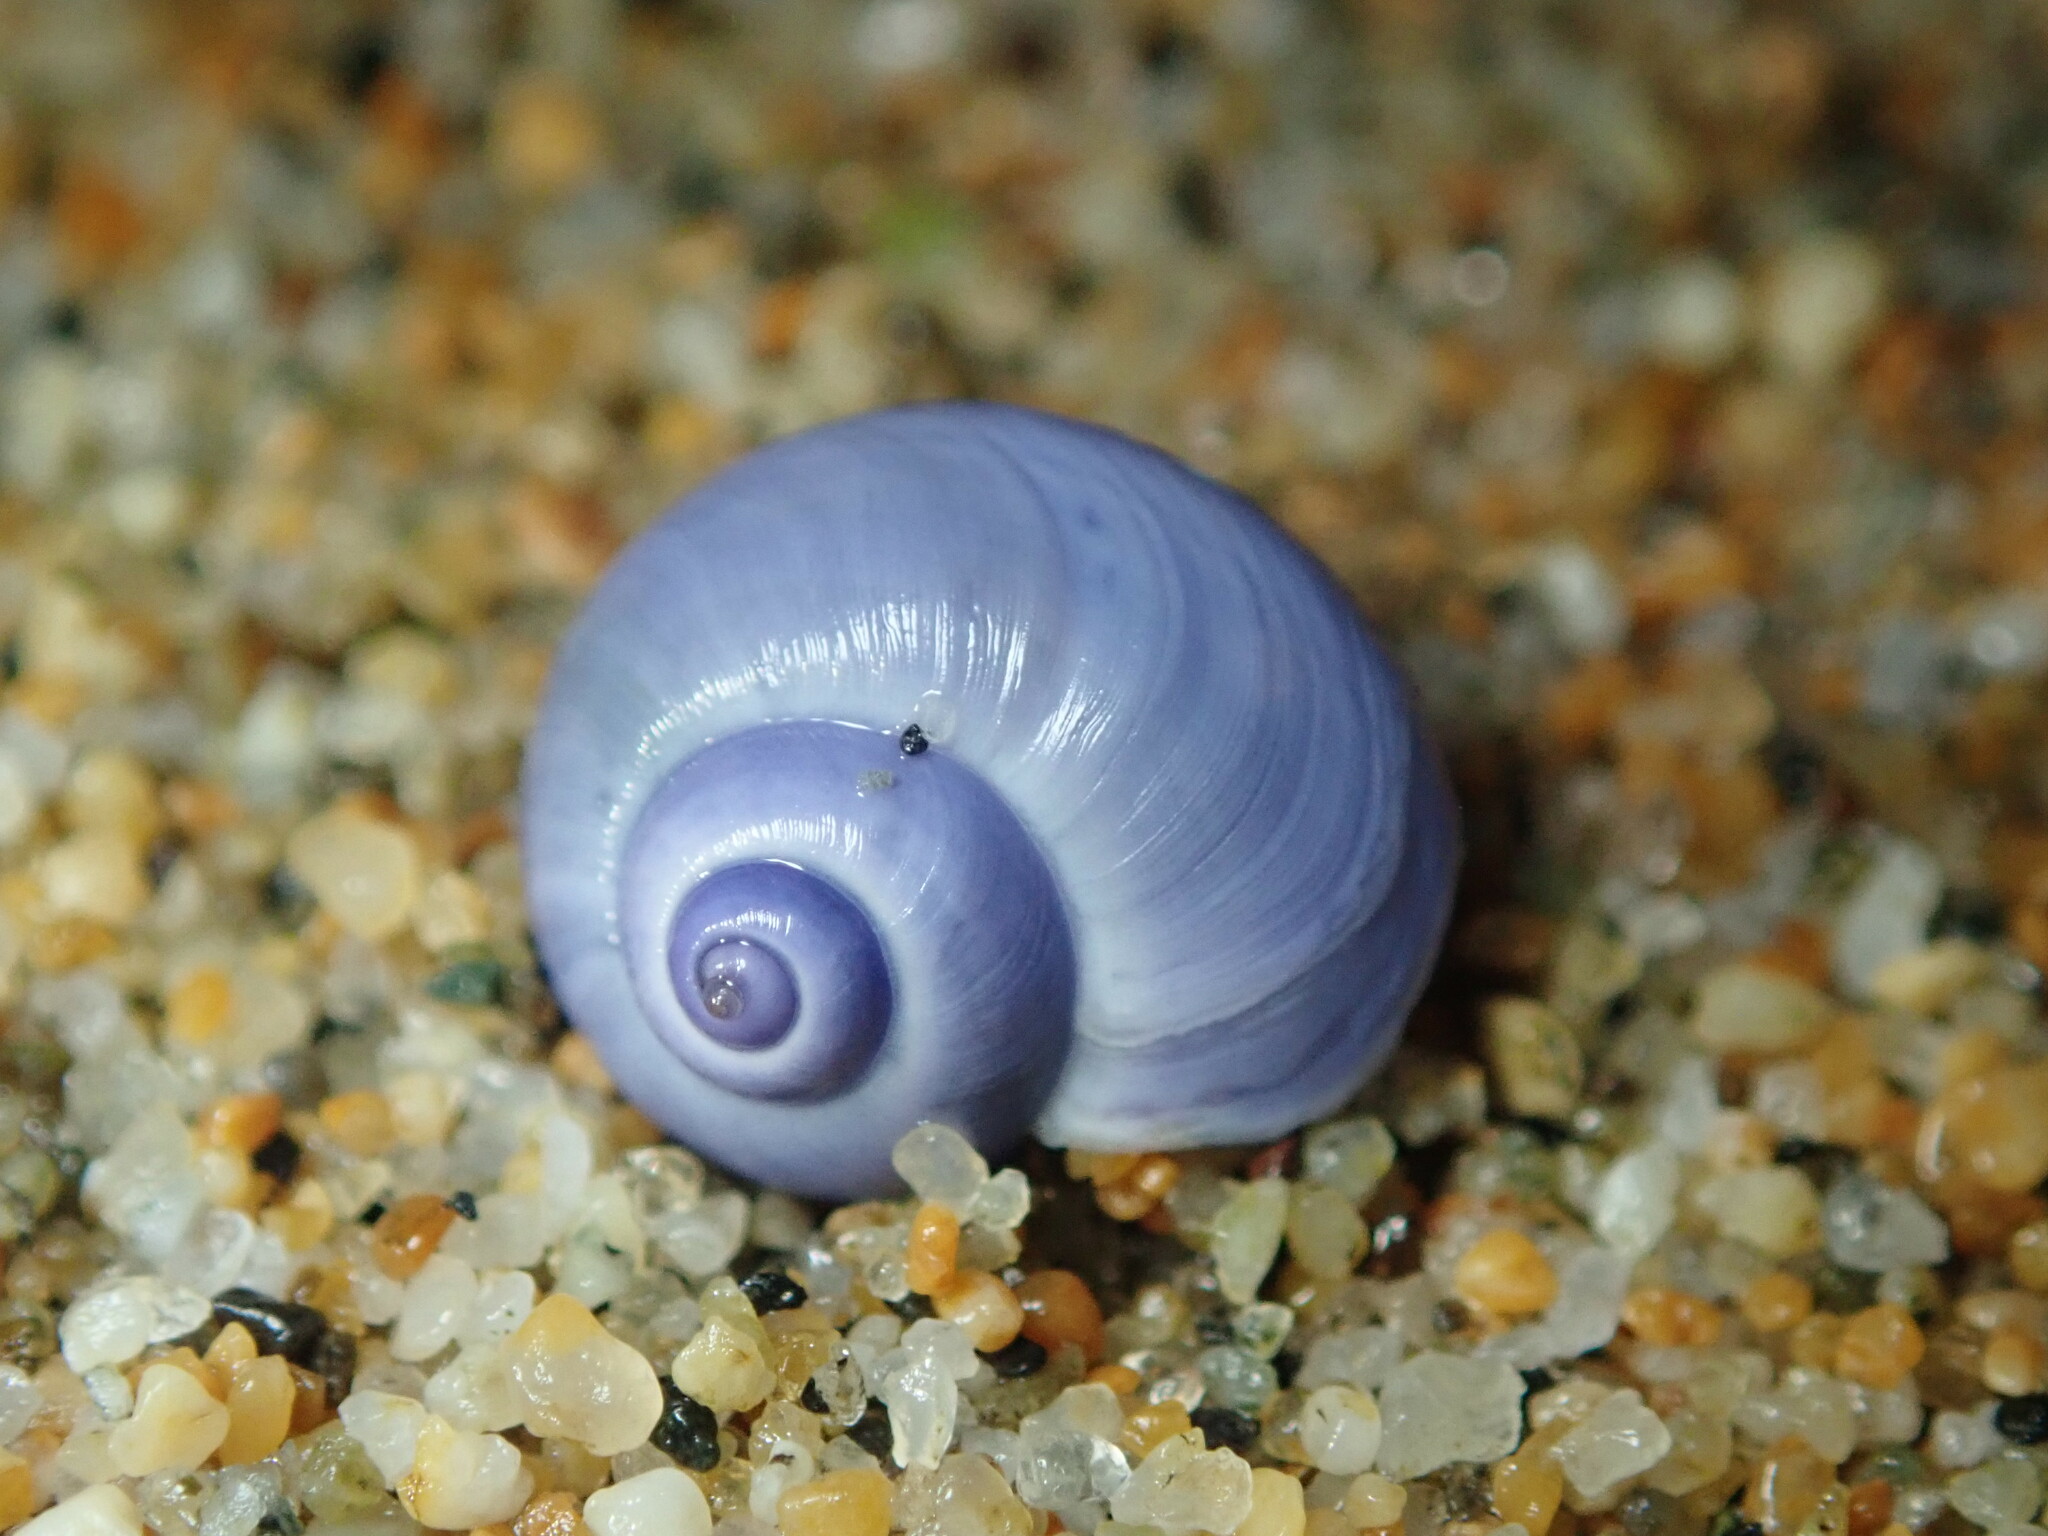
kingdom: Animalia
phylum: Mollusca
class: Gastropoda
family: Epitoniidae
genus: Janthina
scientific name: Janthina umbilicata
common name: Elongate janthina
